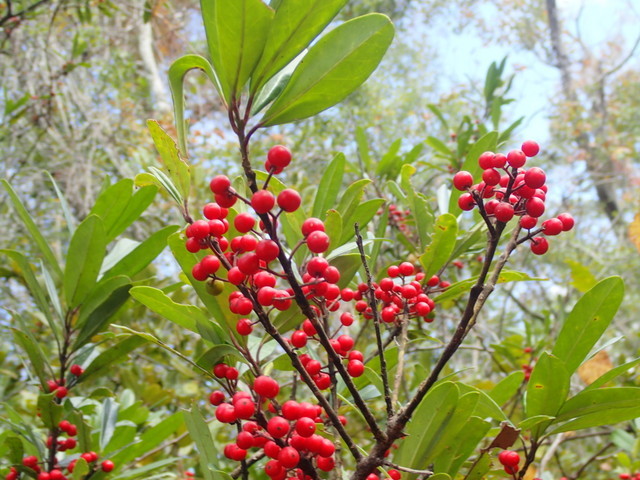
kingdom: Plantae
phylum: Tracheophyta
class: Magnoliopsida
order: Aquifoliales
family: Aquifoliaceae
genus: Ilex
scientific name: Ilex cassine
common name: Dahoon
